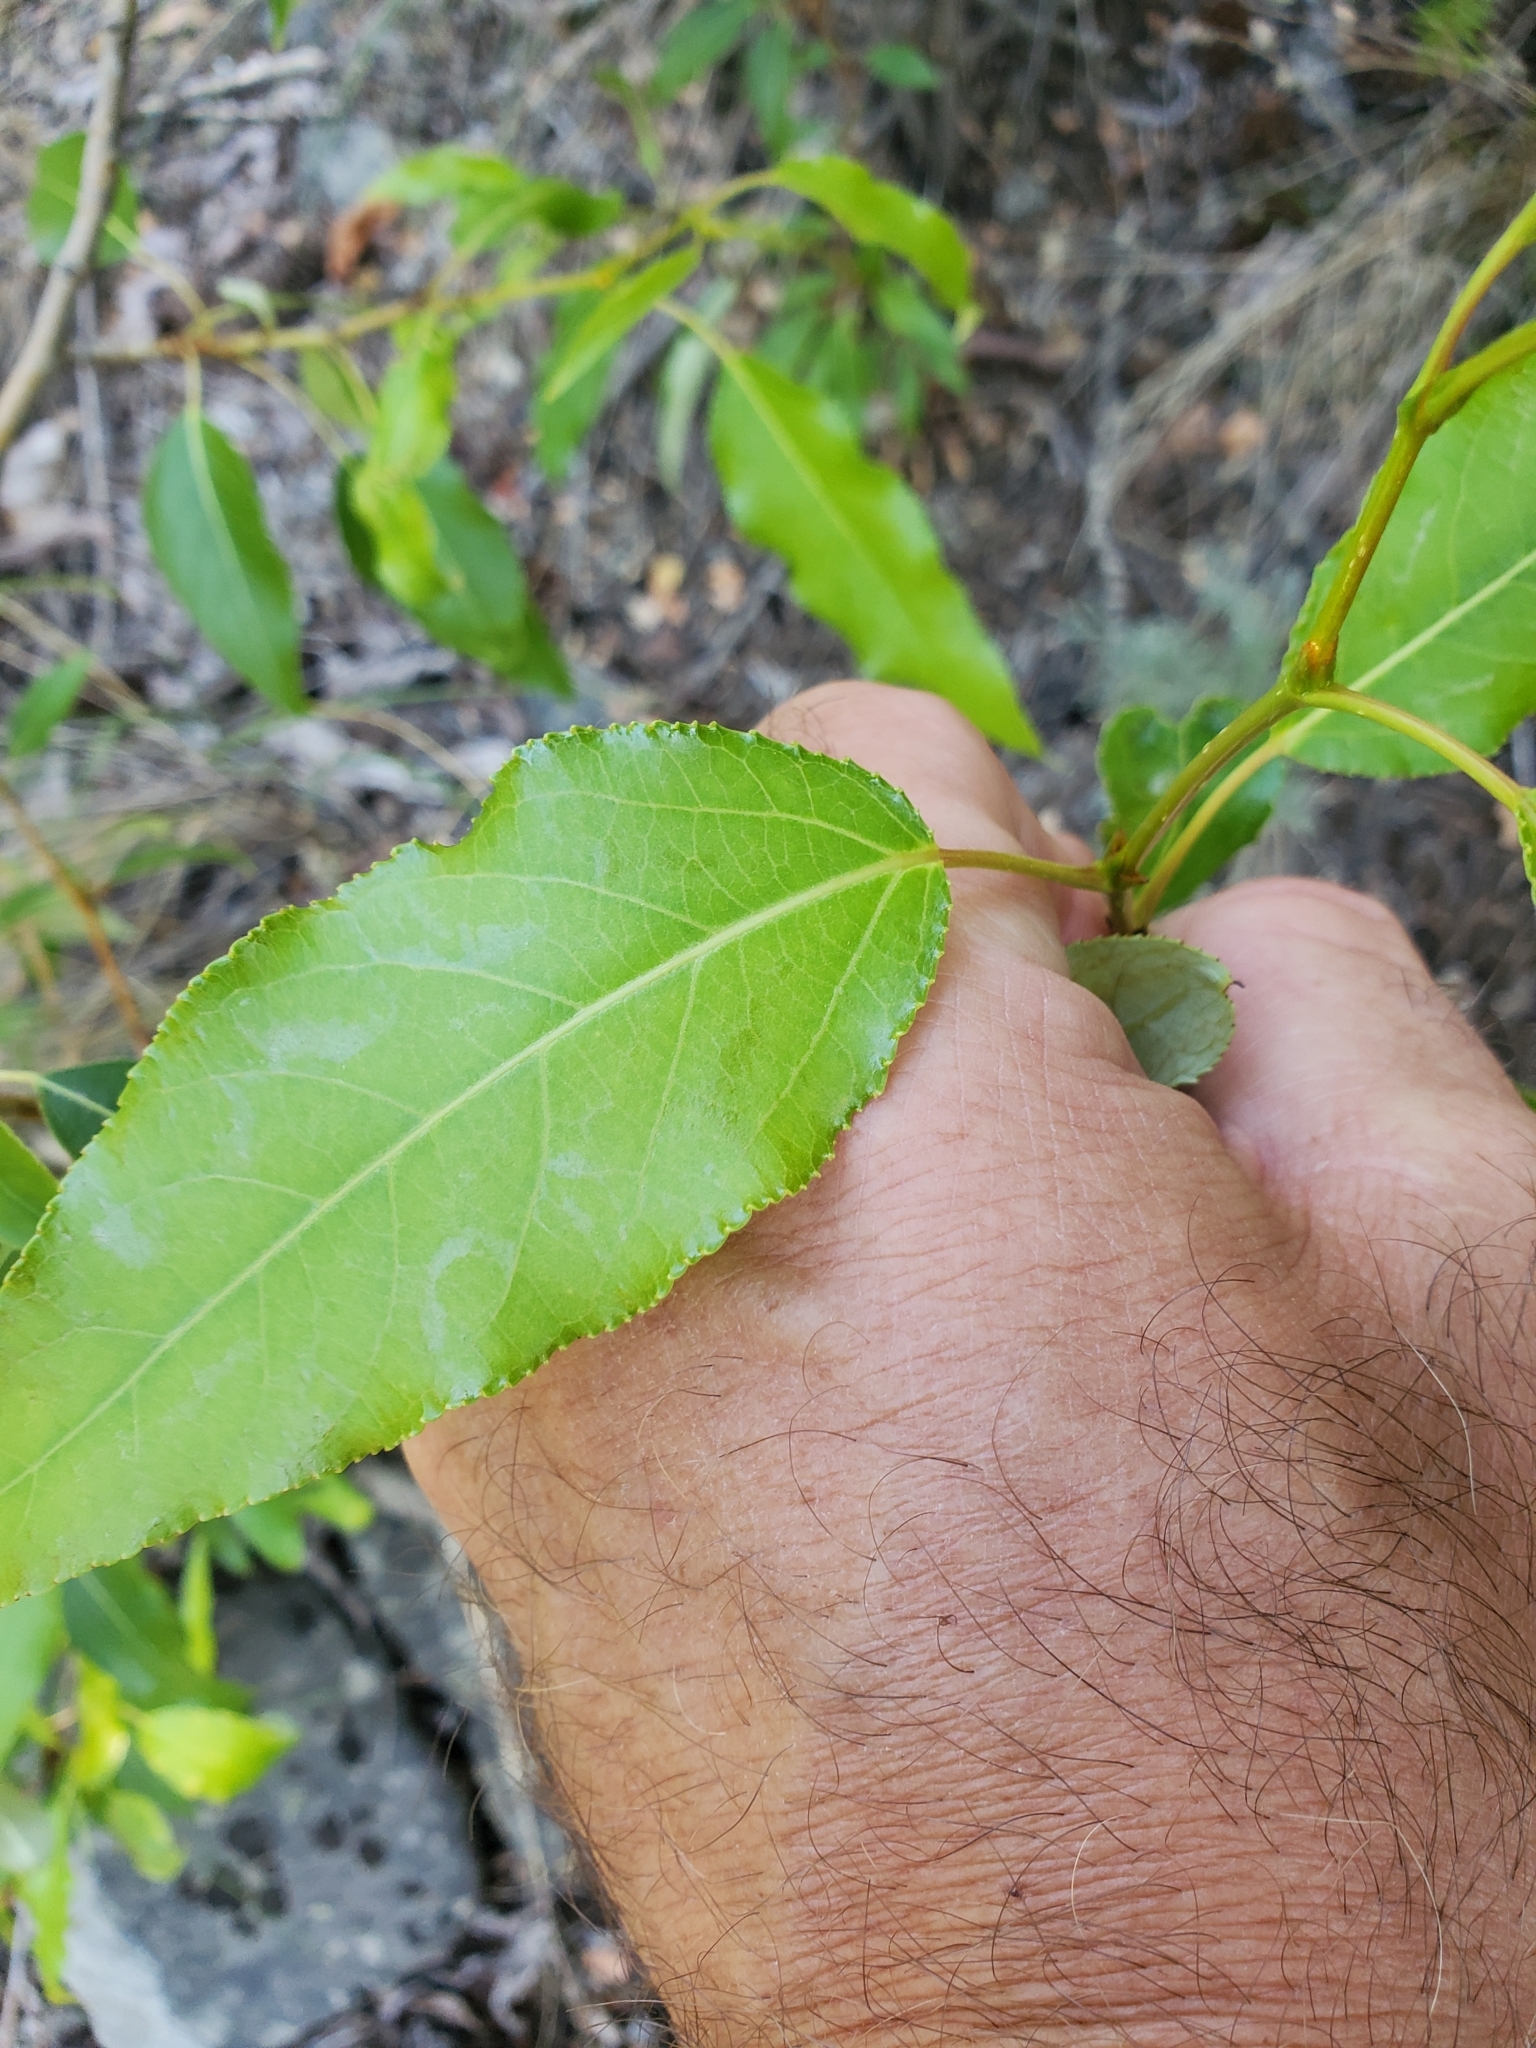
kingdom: Plantae
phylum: Tracheophyta
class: Magnoliopsida
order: Malpighiales
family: Salicaceae
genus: Populus
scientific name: Populus trichocarpa
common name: Black cottonwood
